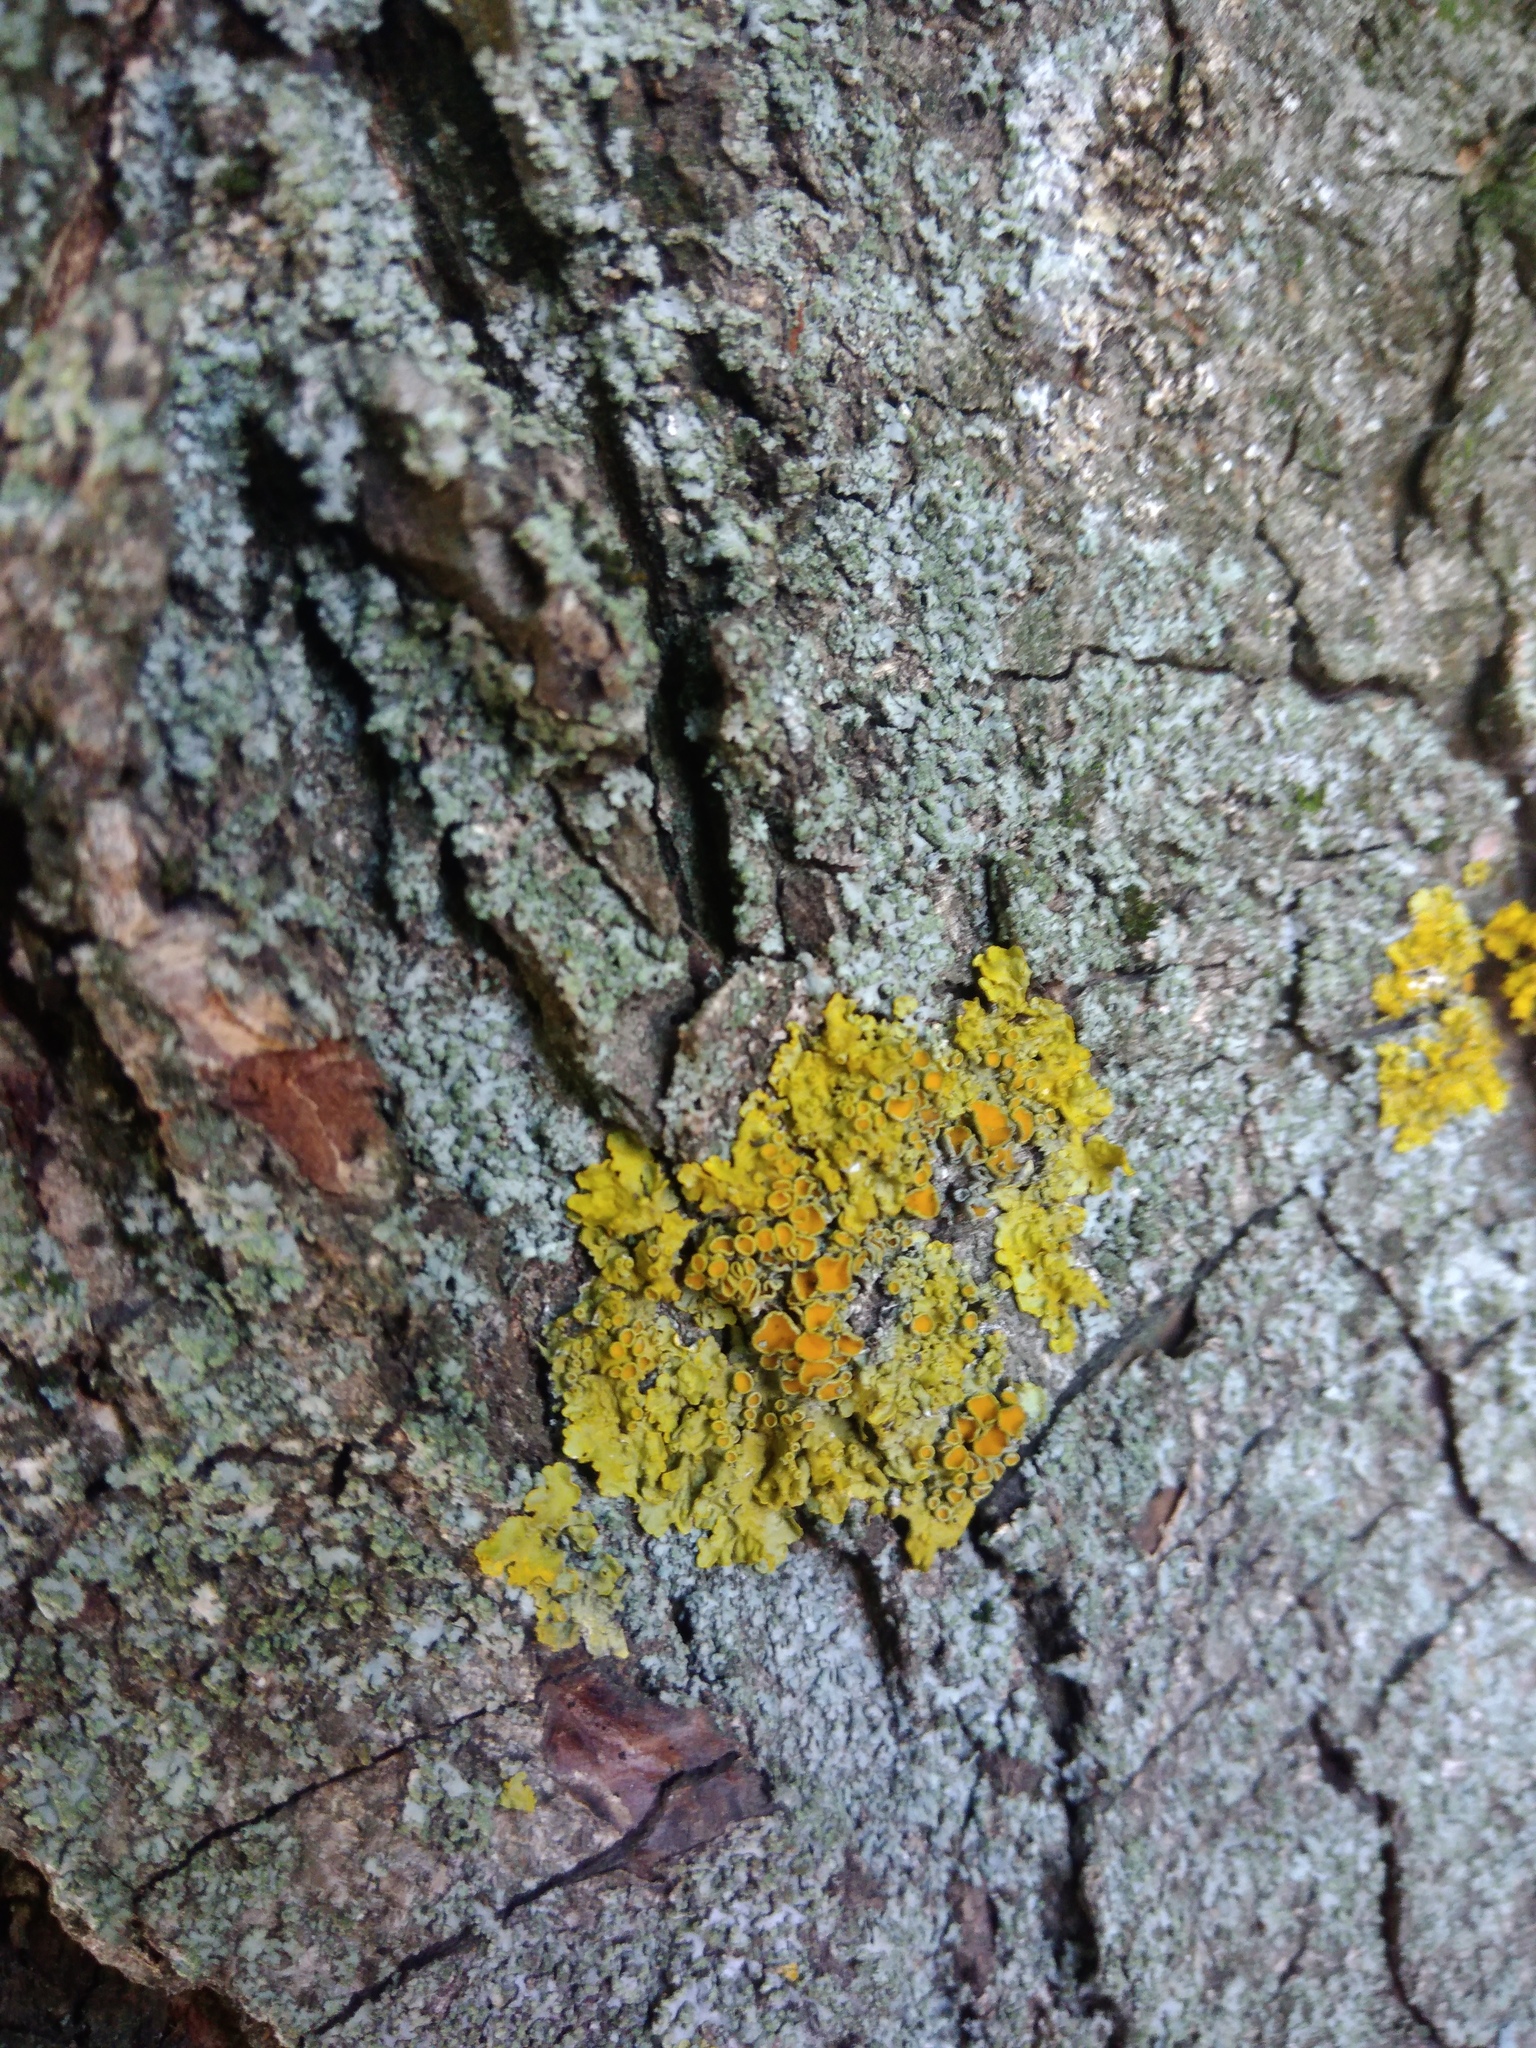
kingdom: Fungi
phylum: Ascomycota
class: Lecanoromycetes
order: Teloschistales
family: Teloschistaceae
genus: Xanthoria
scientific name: Xanthoria parietina
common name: Common orange lichen
